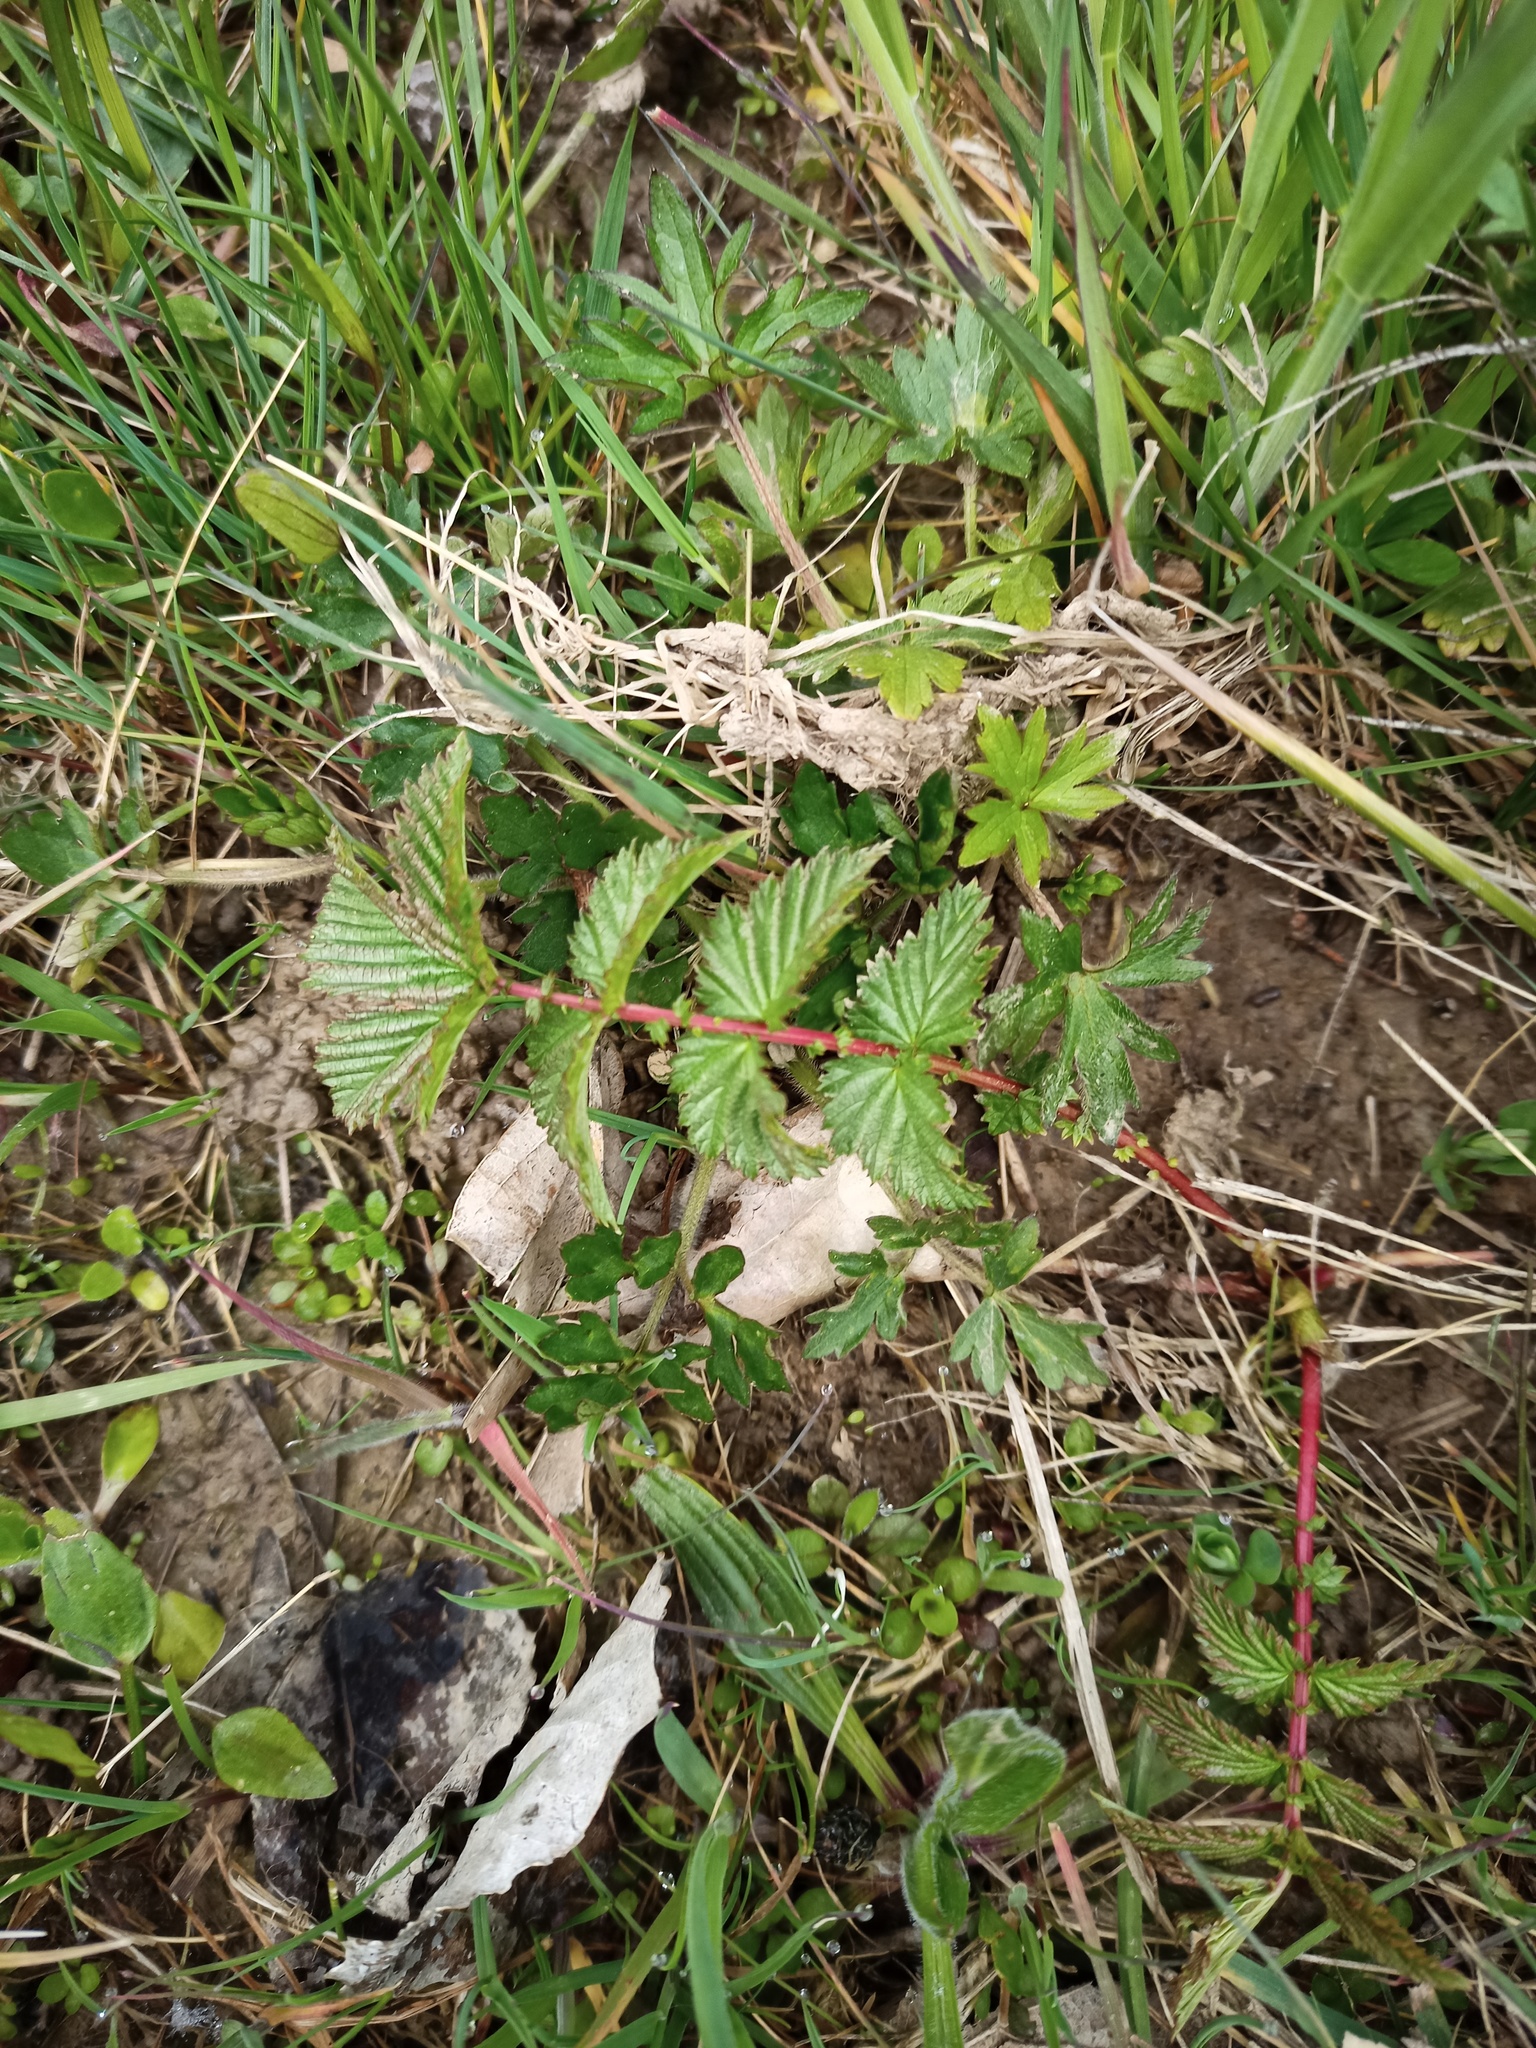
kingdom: Plantae
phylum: Tracheophyta
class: Magnoliopsida
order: Rosales
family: Rosaceae
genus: Filipendula
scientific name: Filipendula ulmaria
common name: Meadowsweet
